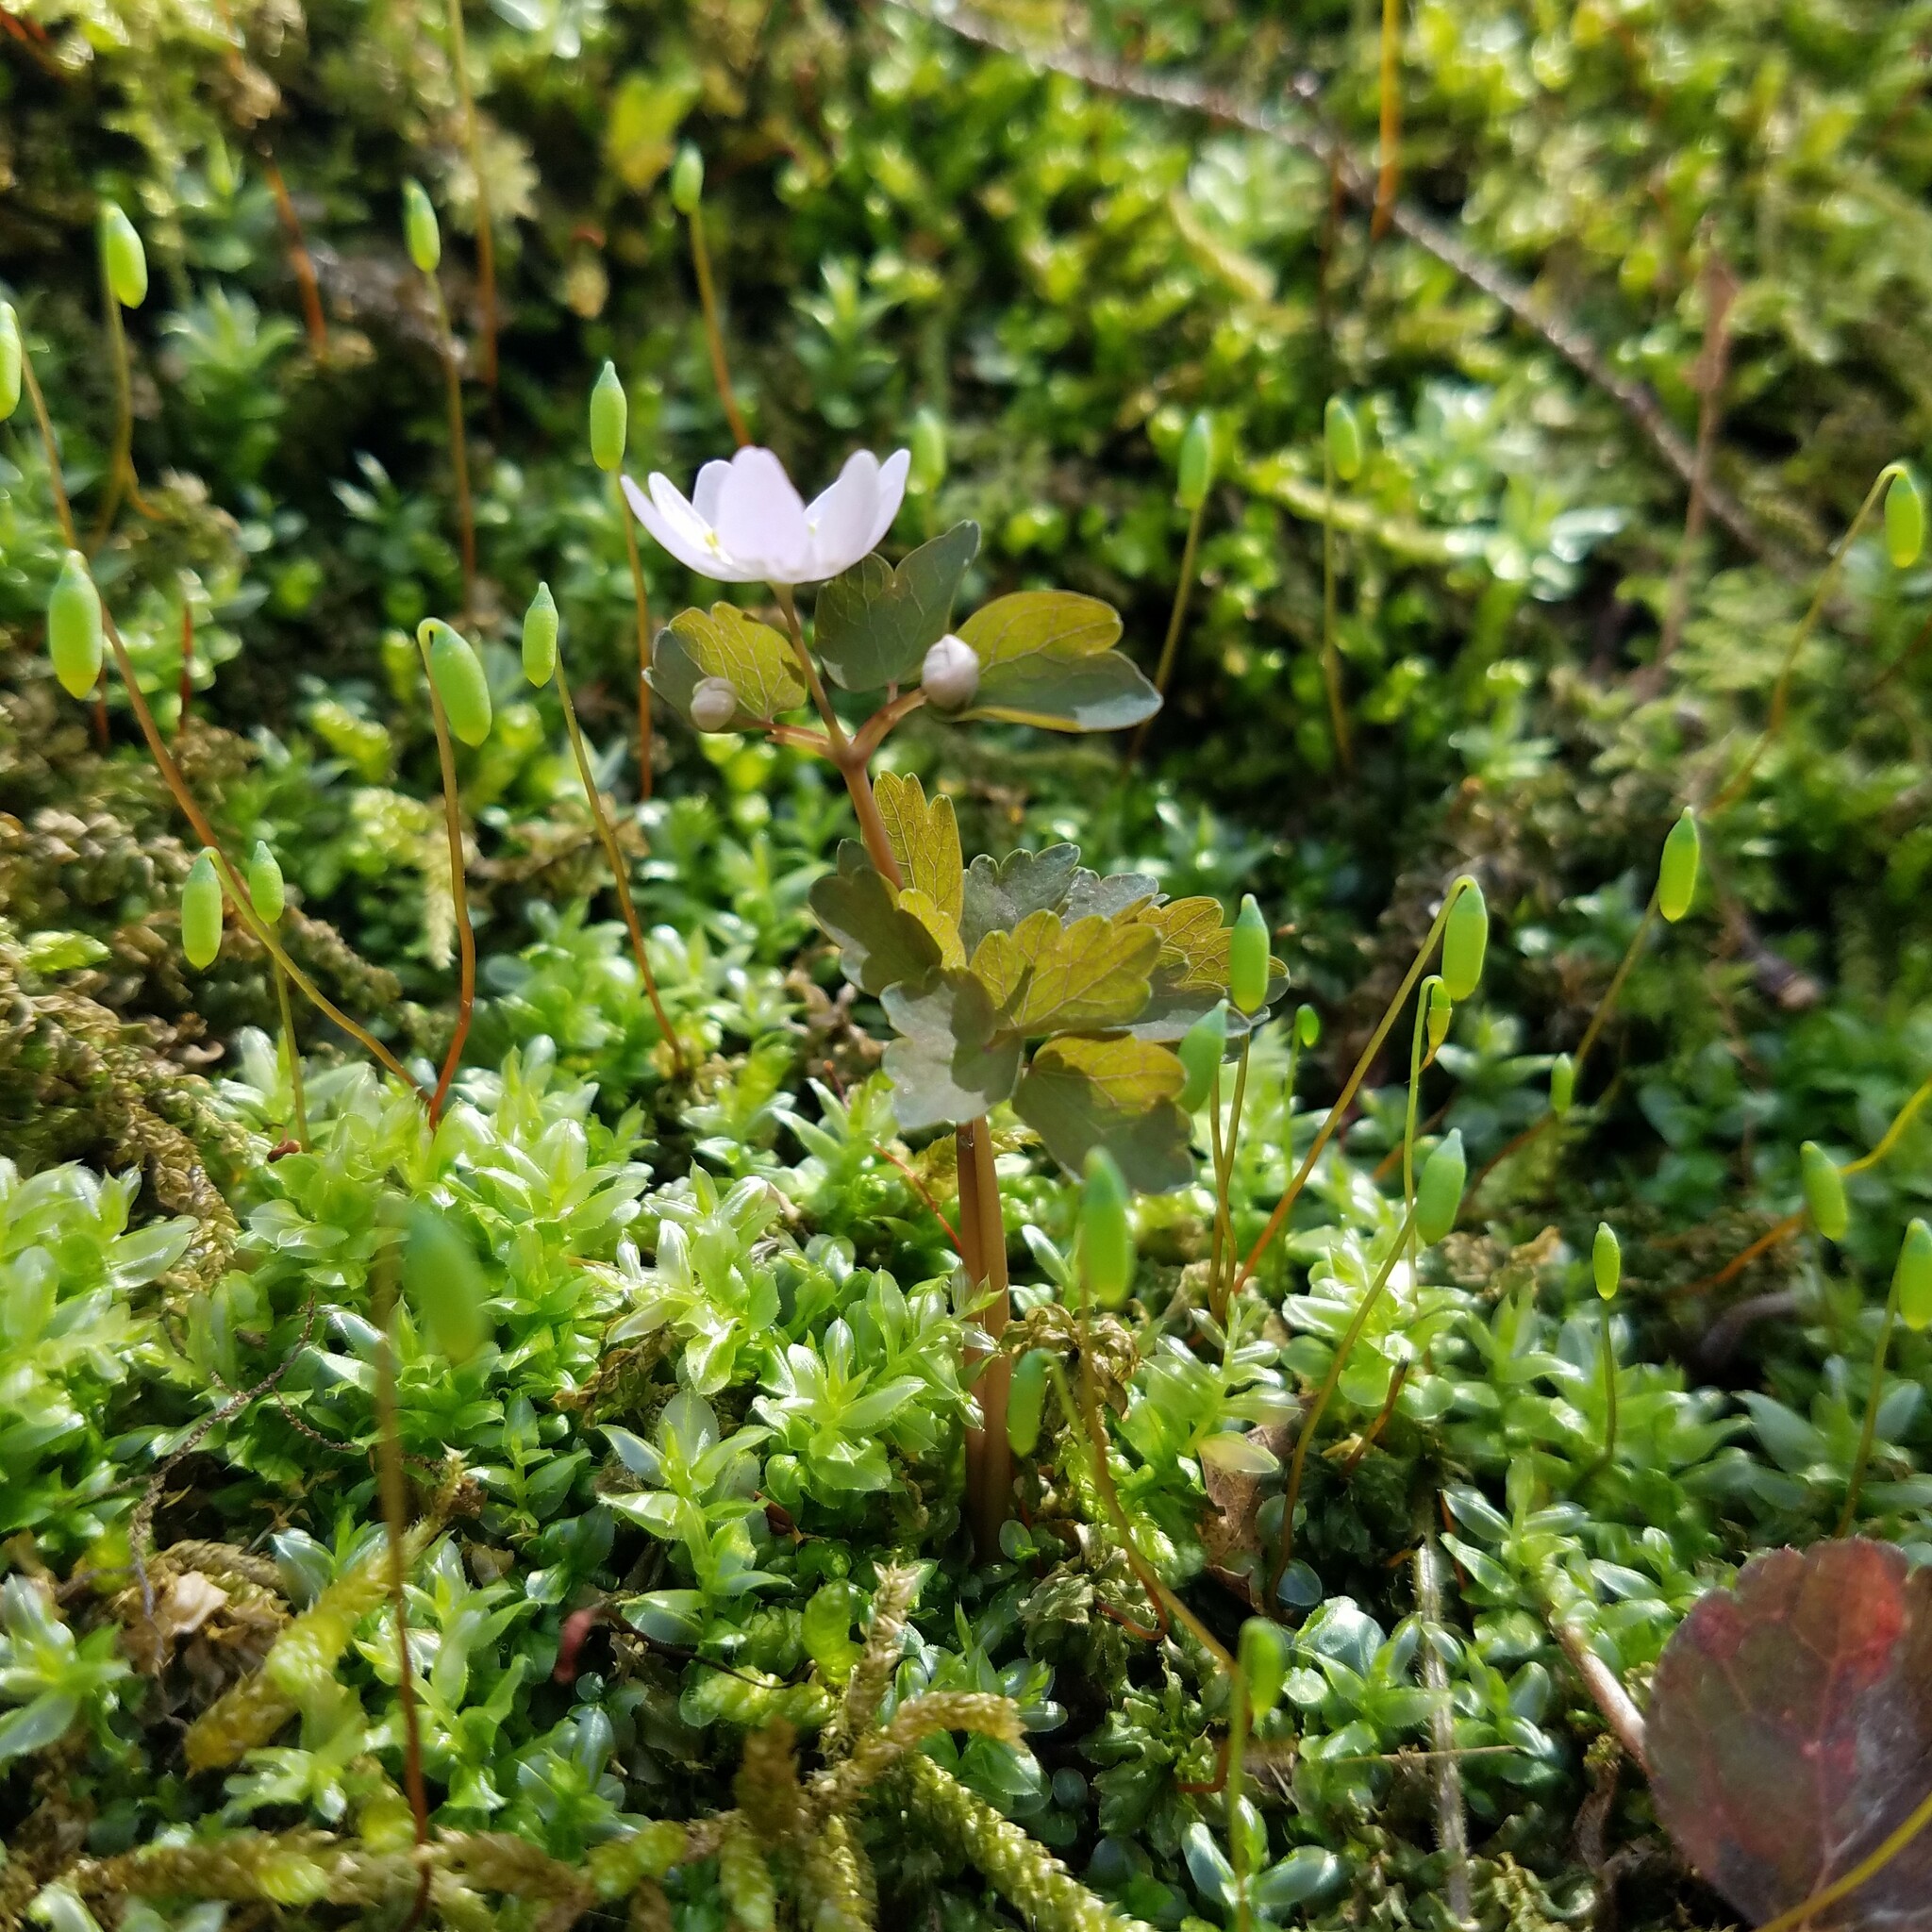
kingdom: Plantae
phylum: Tracheophyta
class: Magnoliopsida
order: Ranunculales
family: Ranunculaceae
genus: Thalictrum
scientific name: Thalictrum thalictroides
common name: Rue-anemone
